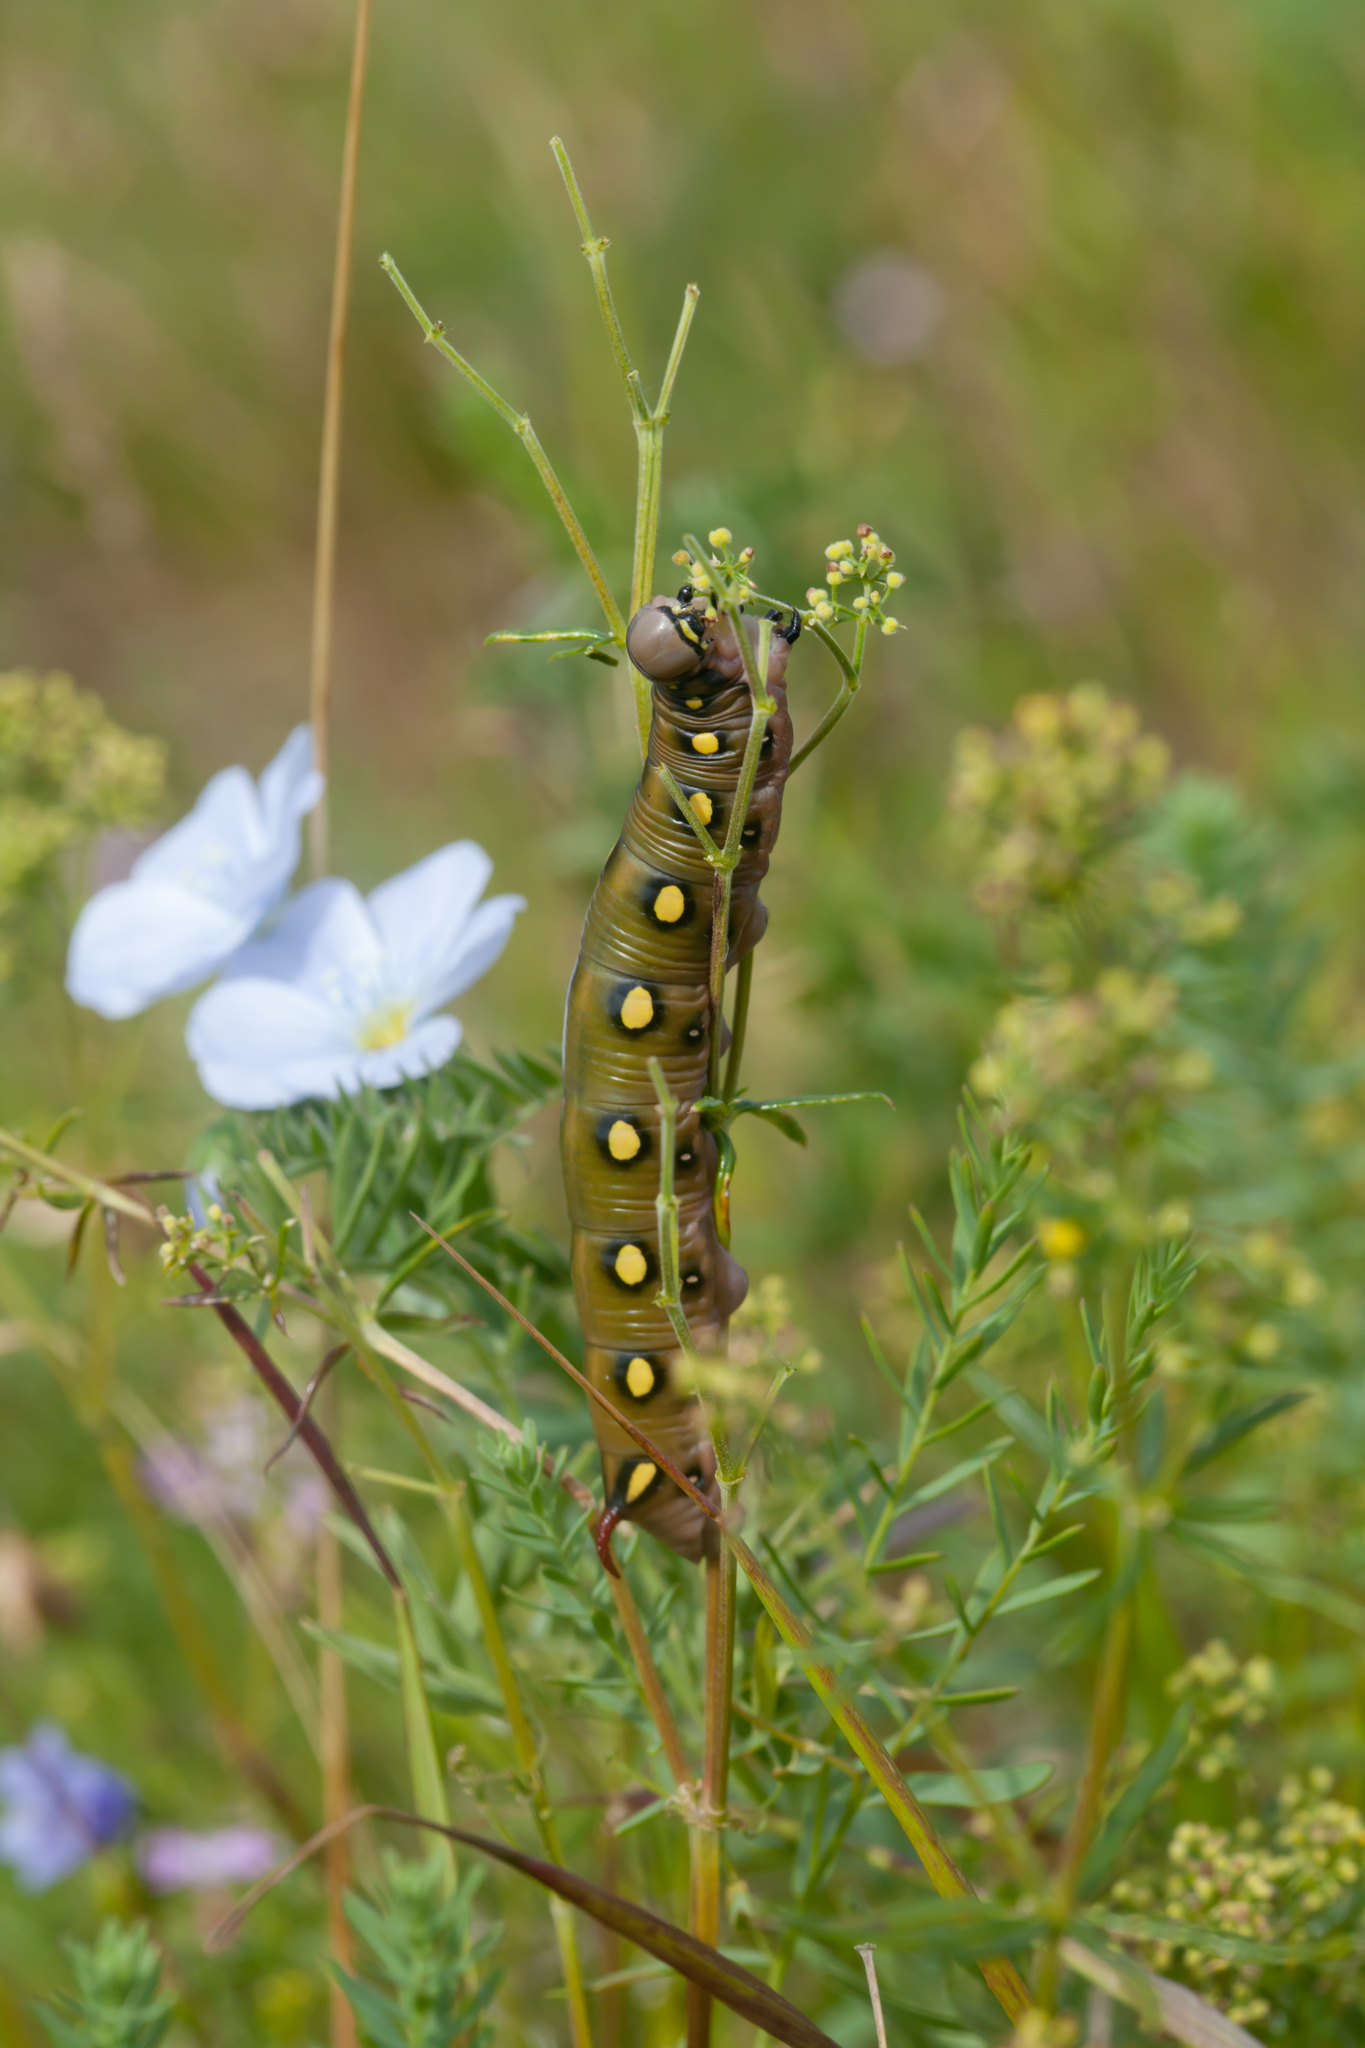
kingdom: Animalia
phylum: Arthropoda
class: Insecta
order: Lepidoptera
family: Sphingidae
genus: Hyles
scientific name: Hyles gallii
